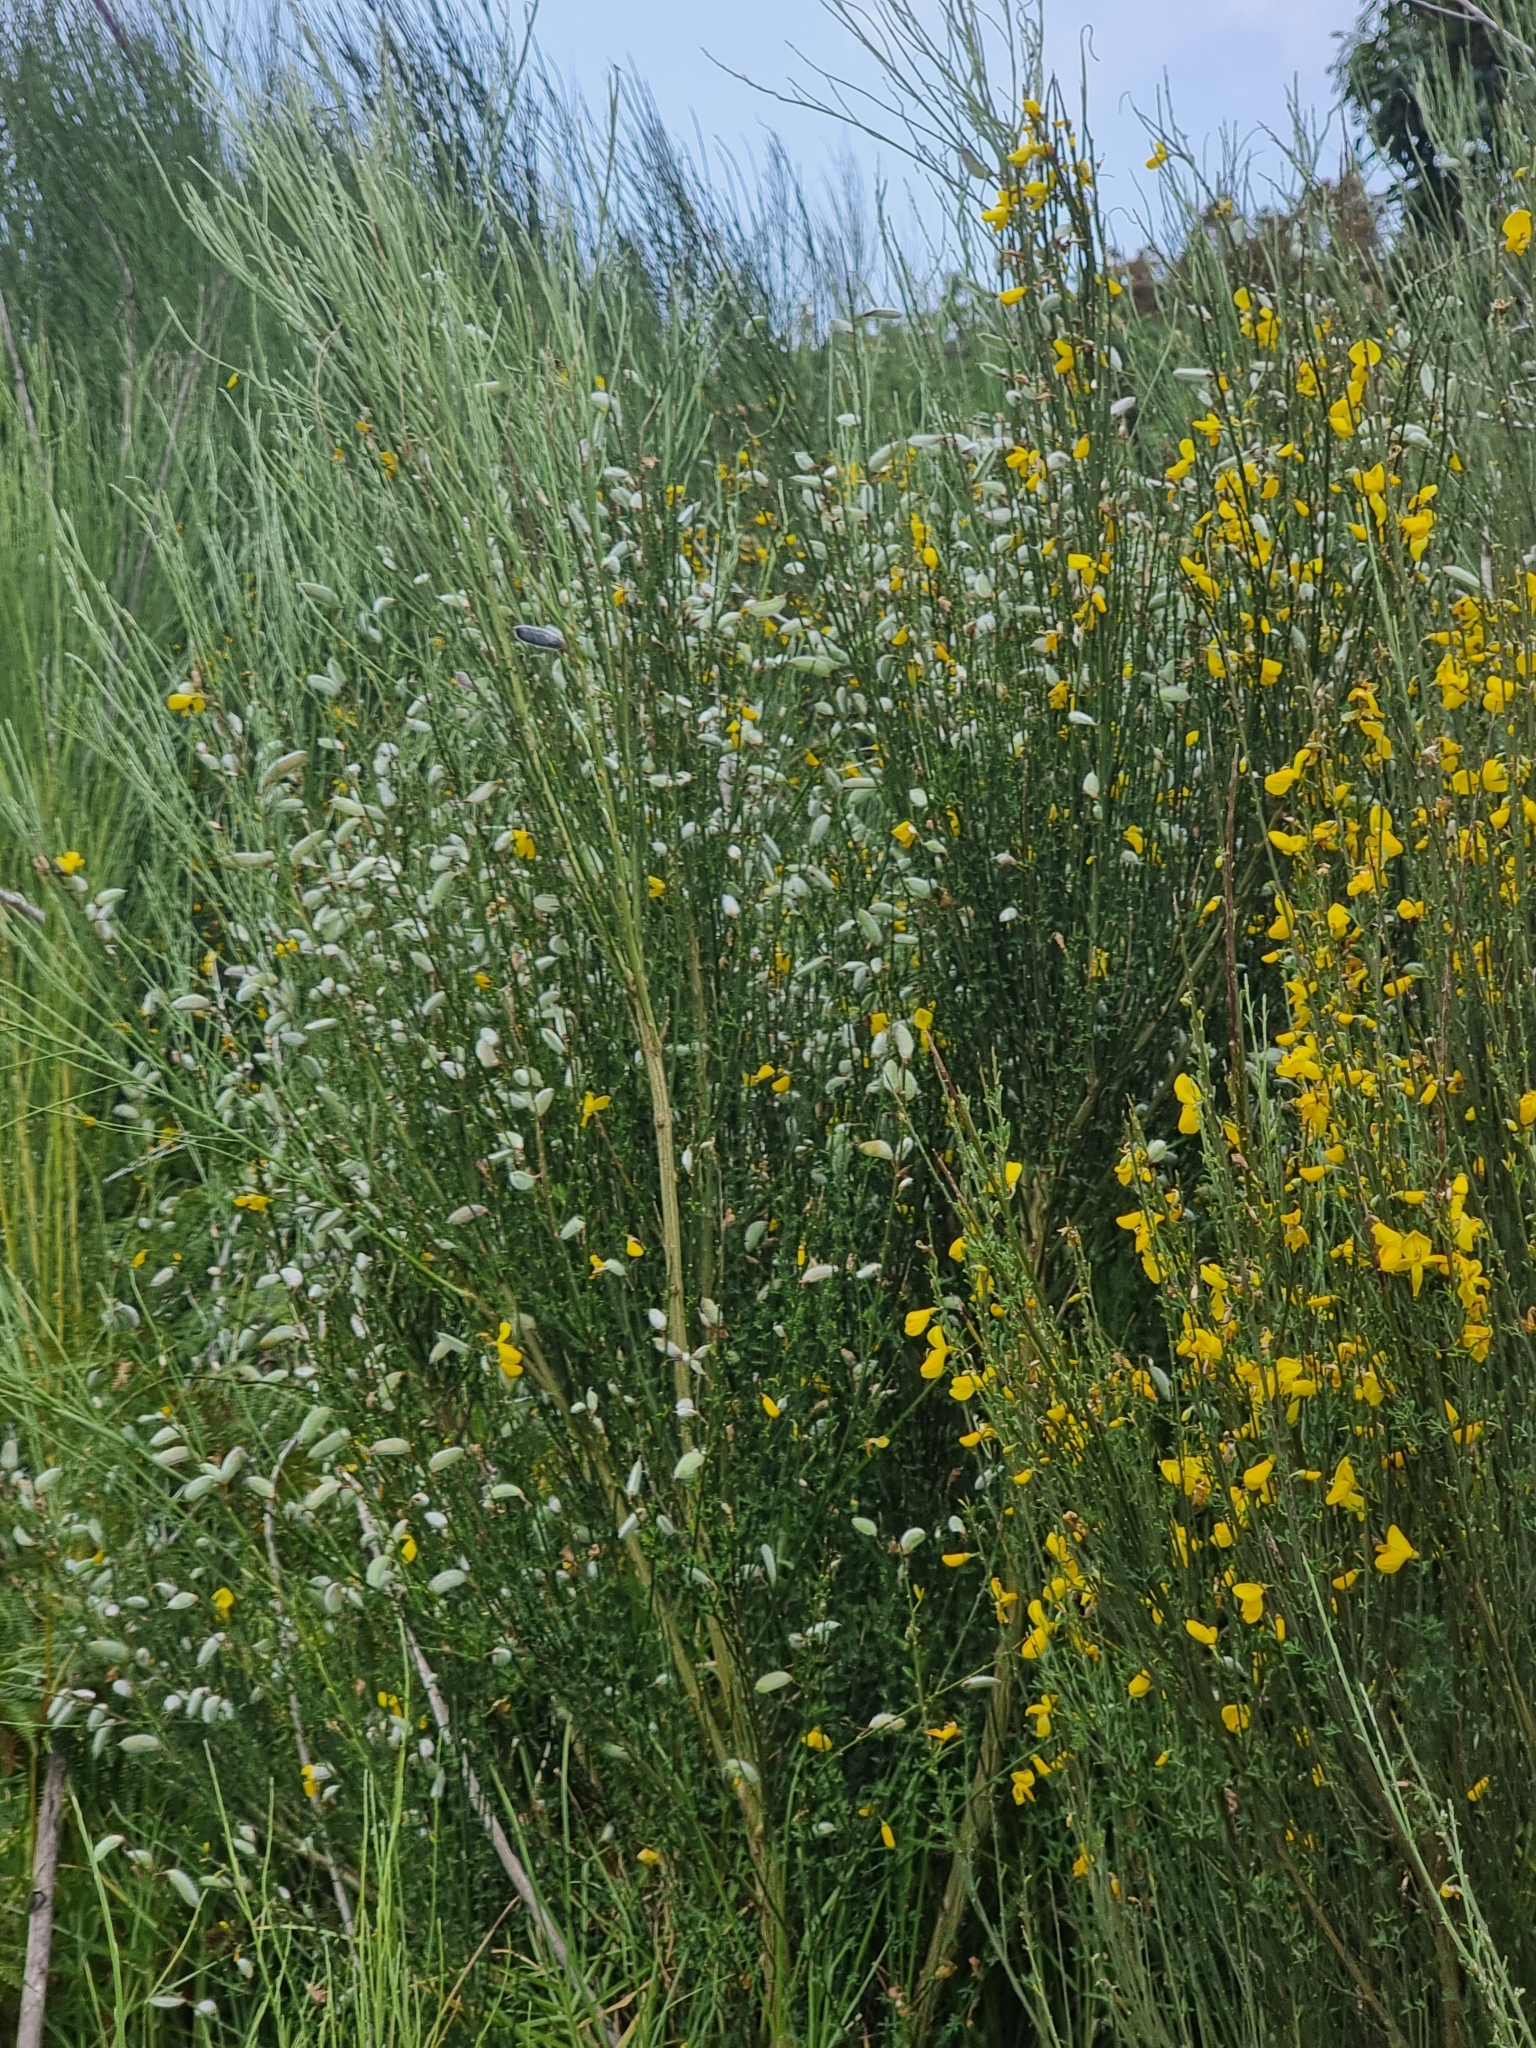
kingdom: Plantae
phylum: Tracheophyta
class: Magnoliopsida
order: Fabales
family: Fabaceae
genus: Cytisus
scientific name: Cytisus striatus
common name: Hairy-fruited broom
